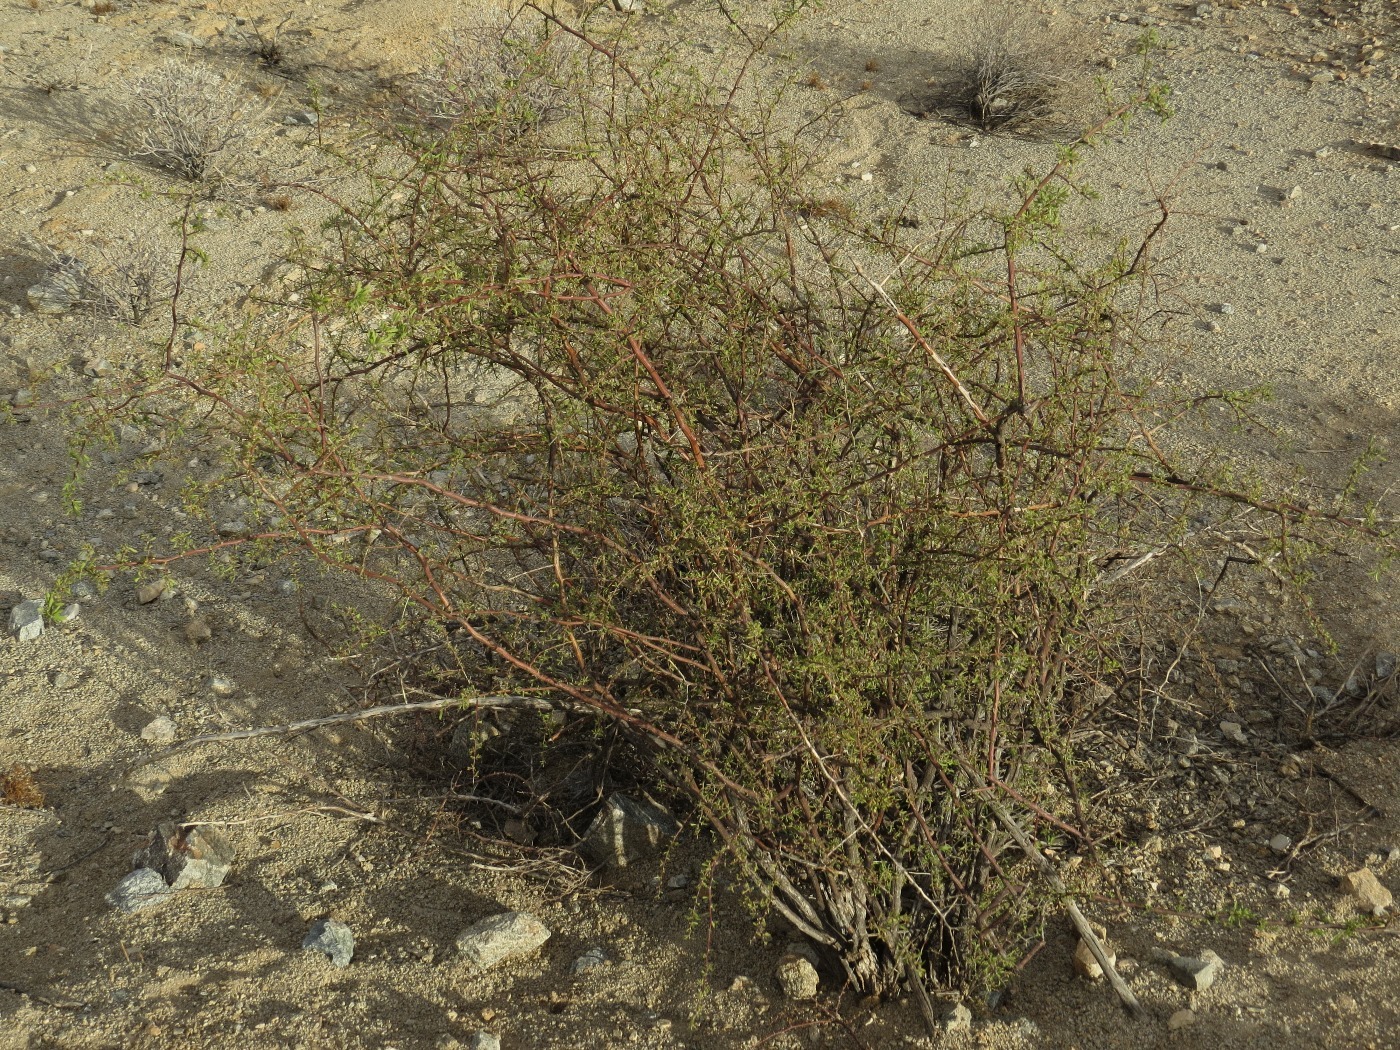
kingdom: Plantae
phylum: Tracheophyta
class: Magnoliopsida
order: Solanales
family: Solanaceae
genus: Lycium
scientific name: Lycium berlandieri
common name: Berlandier wolfberry
